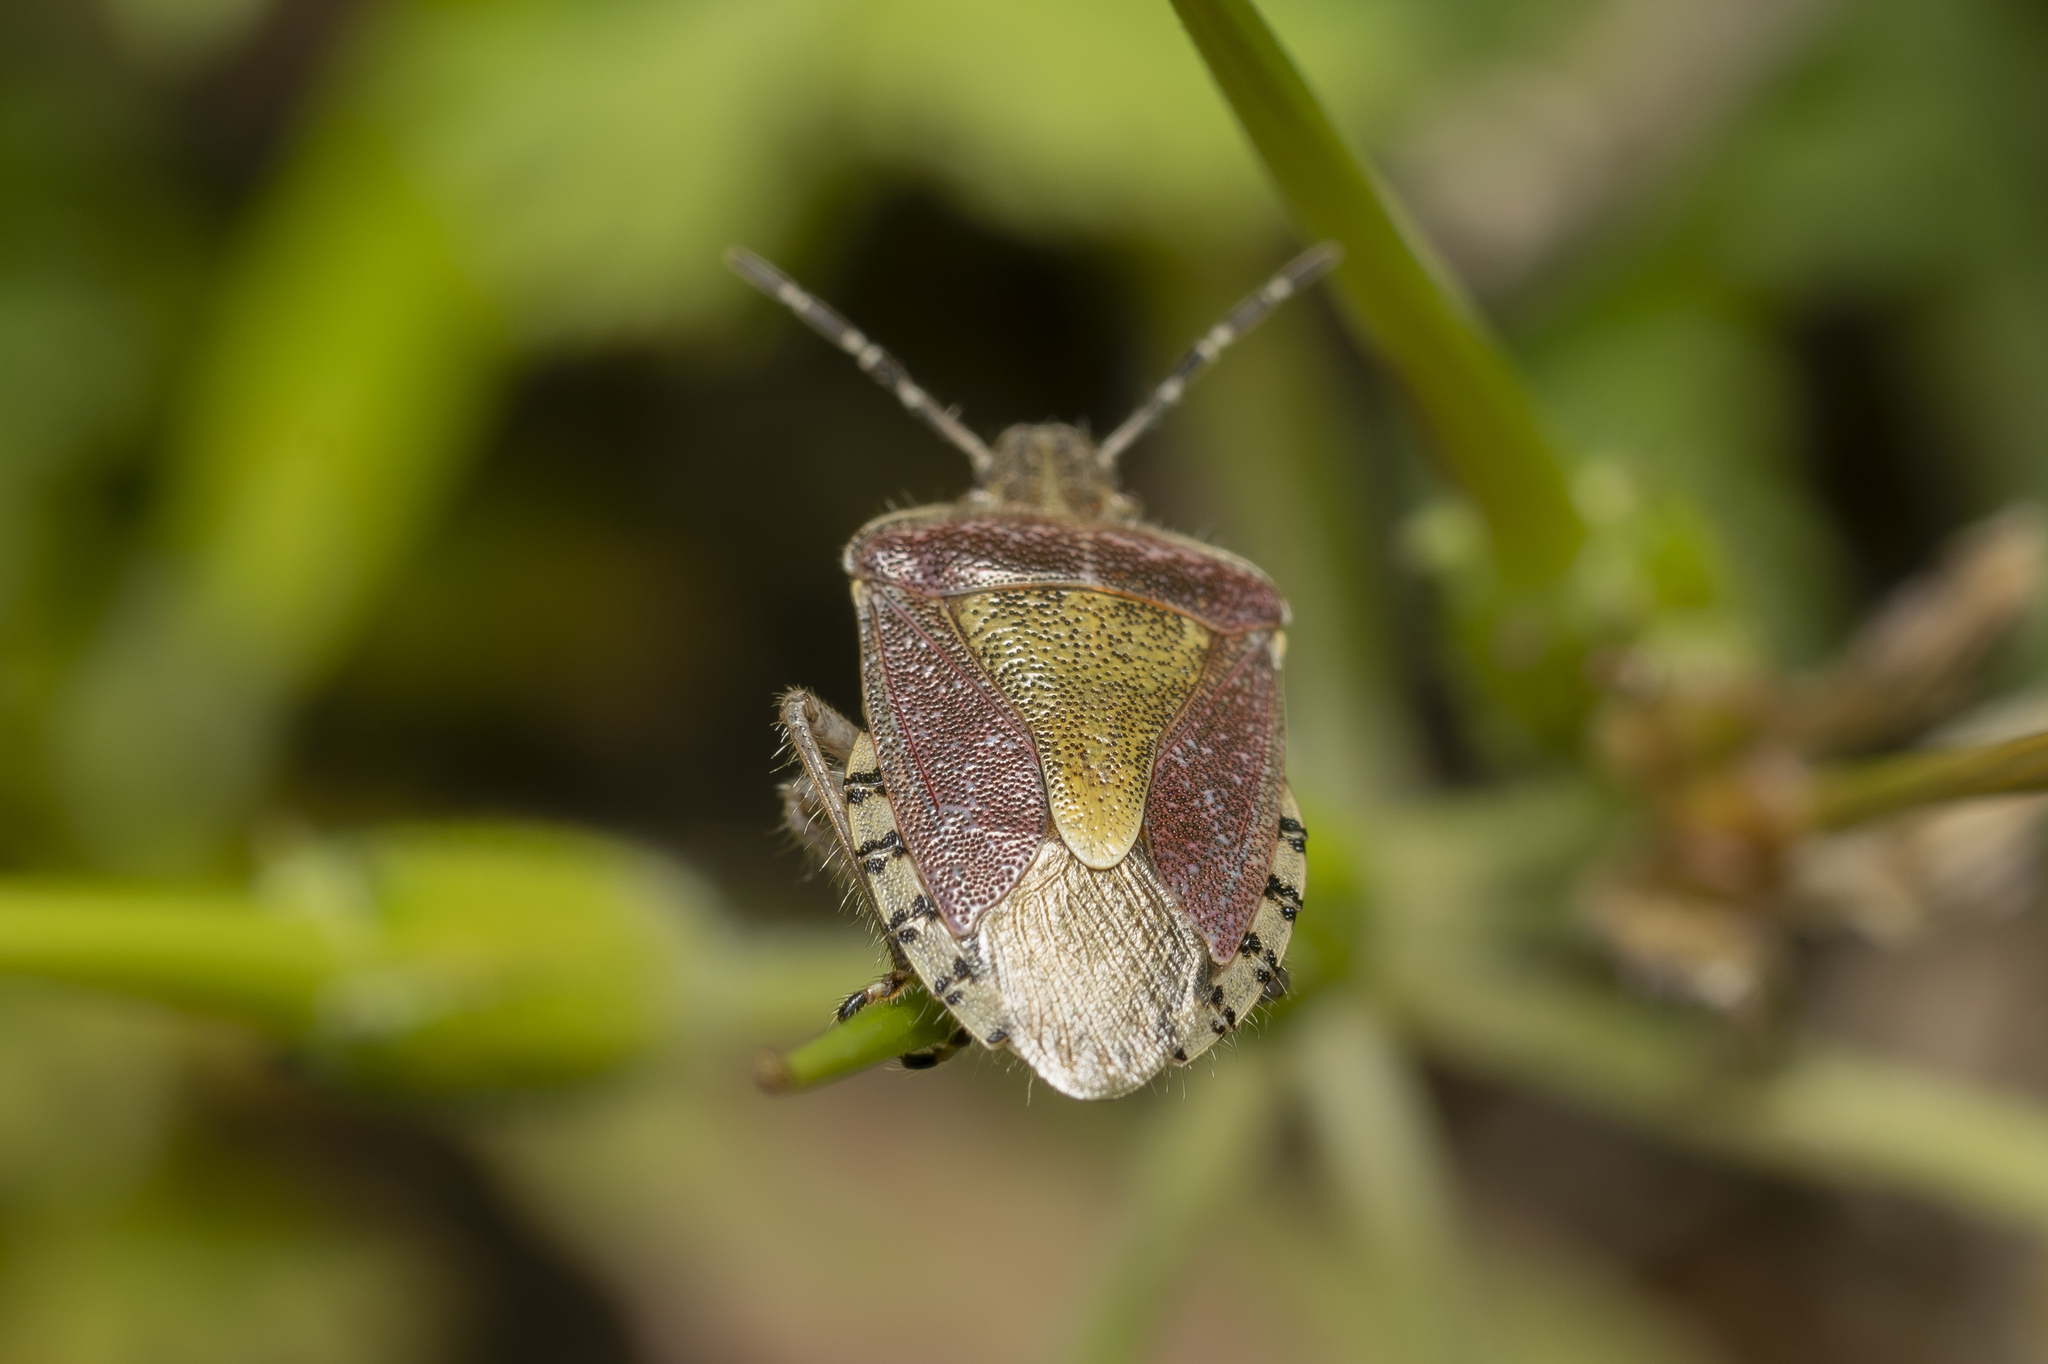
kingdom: Animalia
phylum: Arthropoda
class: Insecta
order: Hemiptera
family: Pentatomidae
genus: Dolycoris
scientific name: Dolycoris baccarum
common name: Sloe bug
